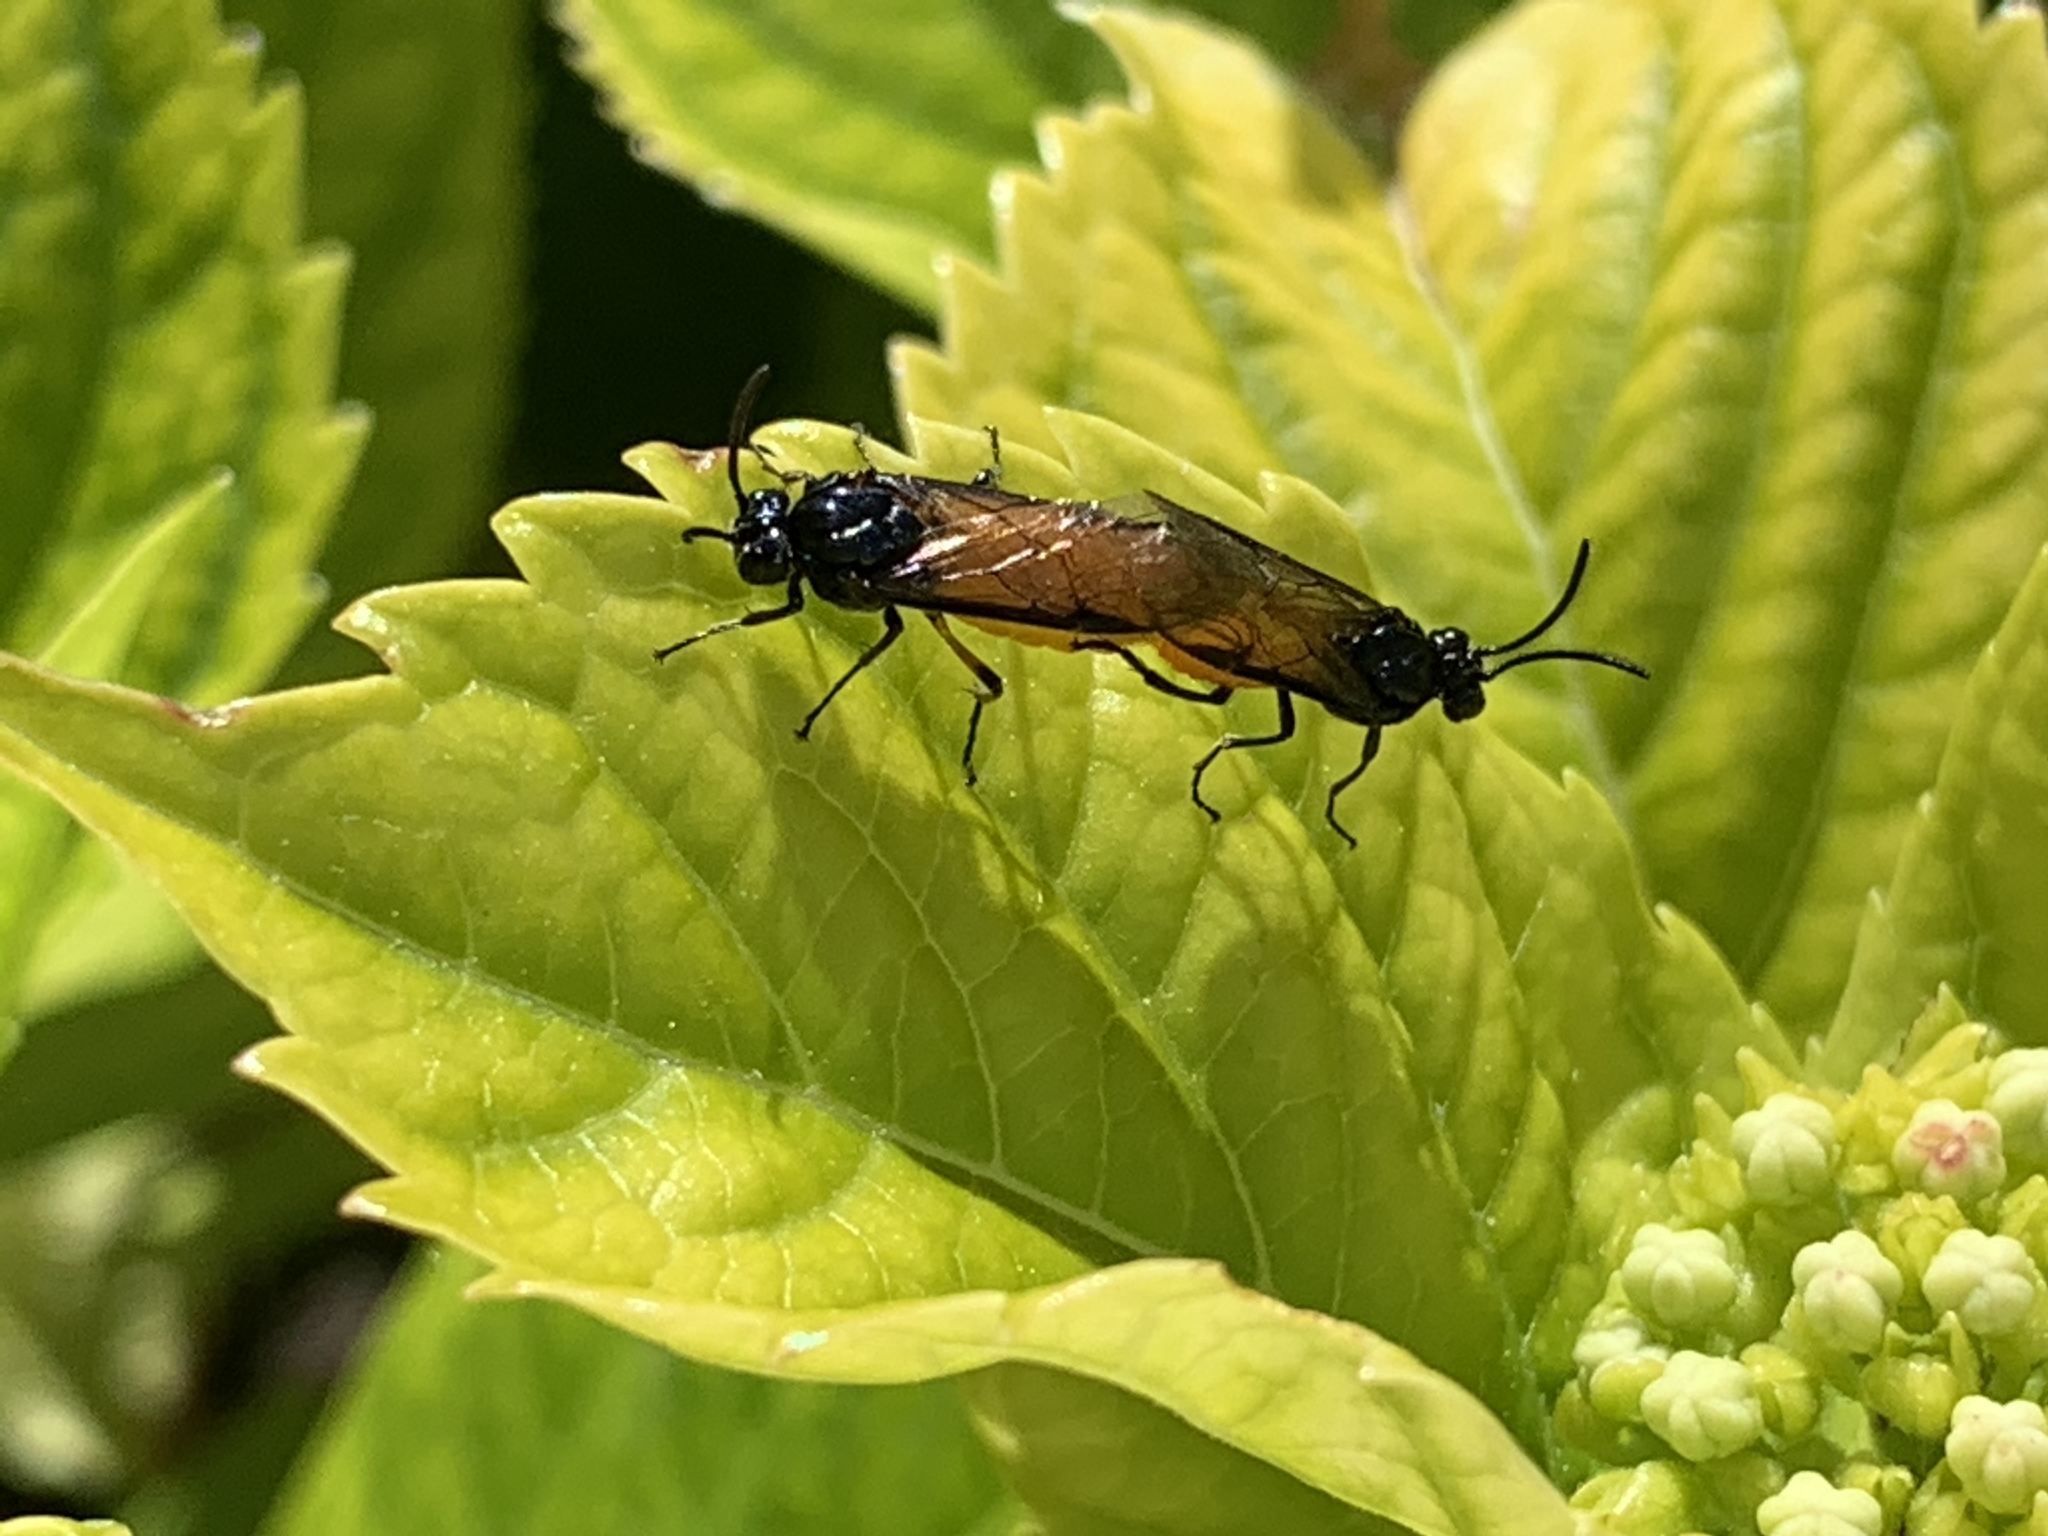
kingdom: Animalia
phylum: Arthropoda
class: Insecta
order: Hymenoptera
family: Argidae
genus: Arge
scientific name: Arge pagana
